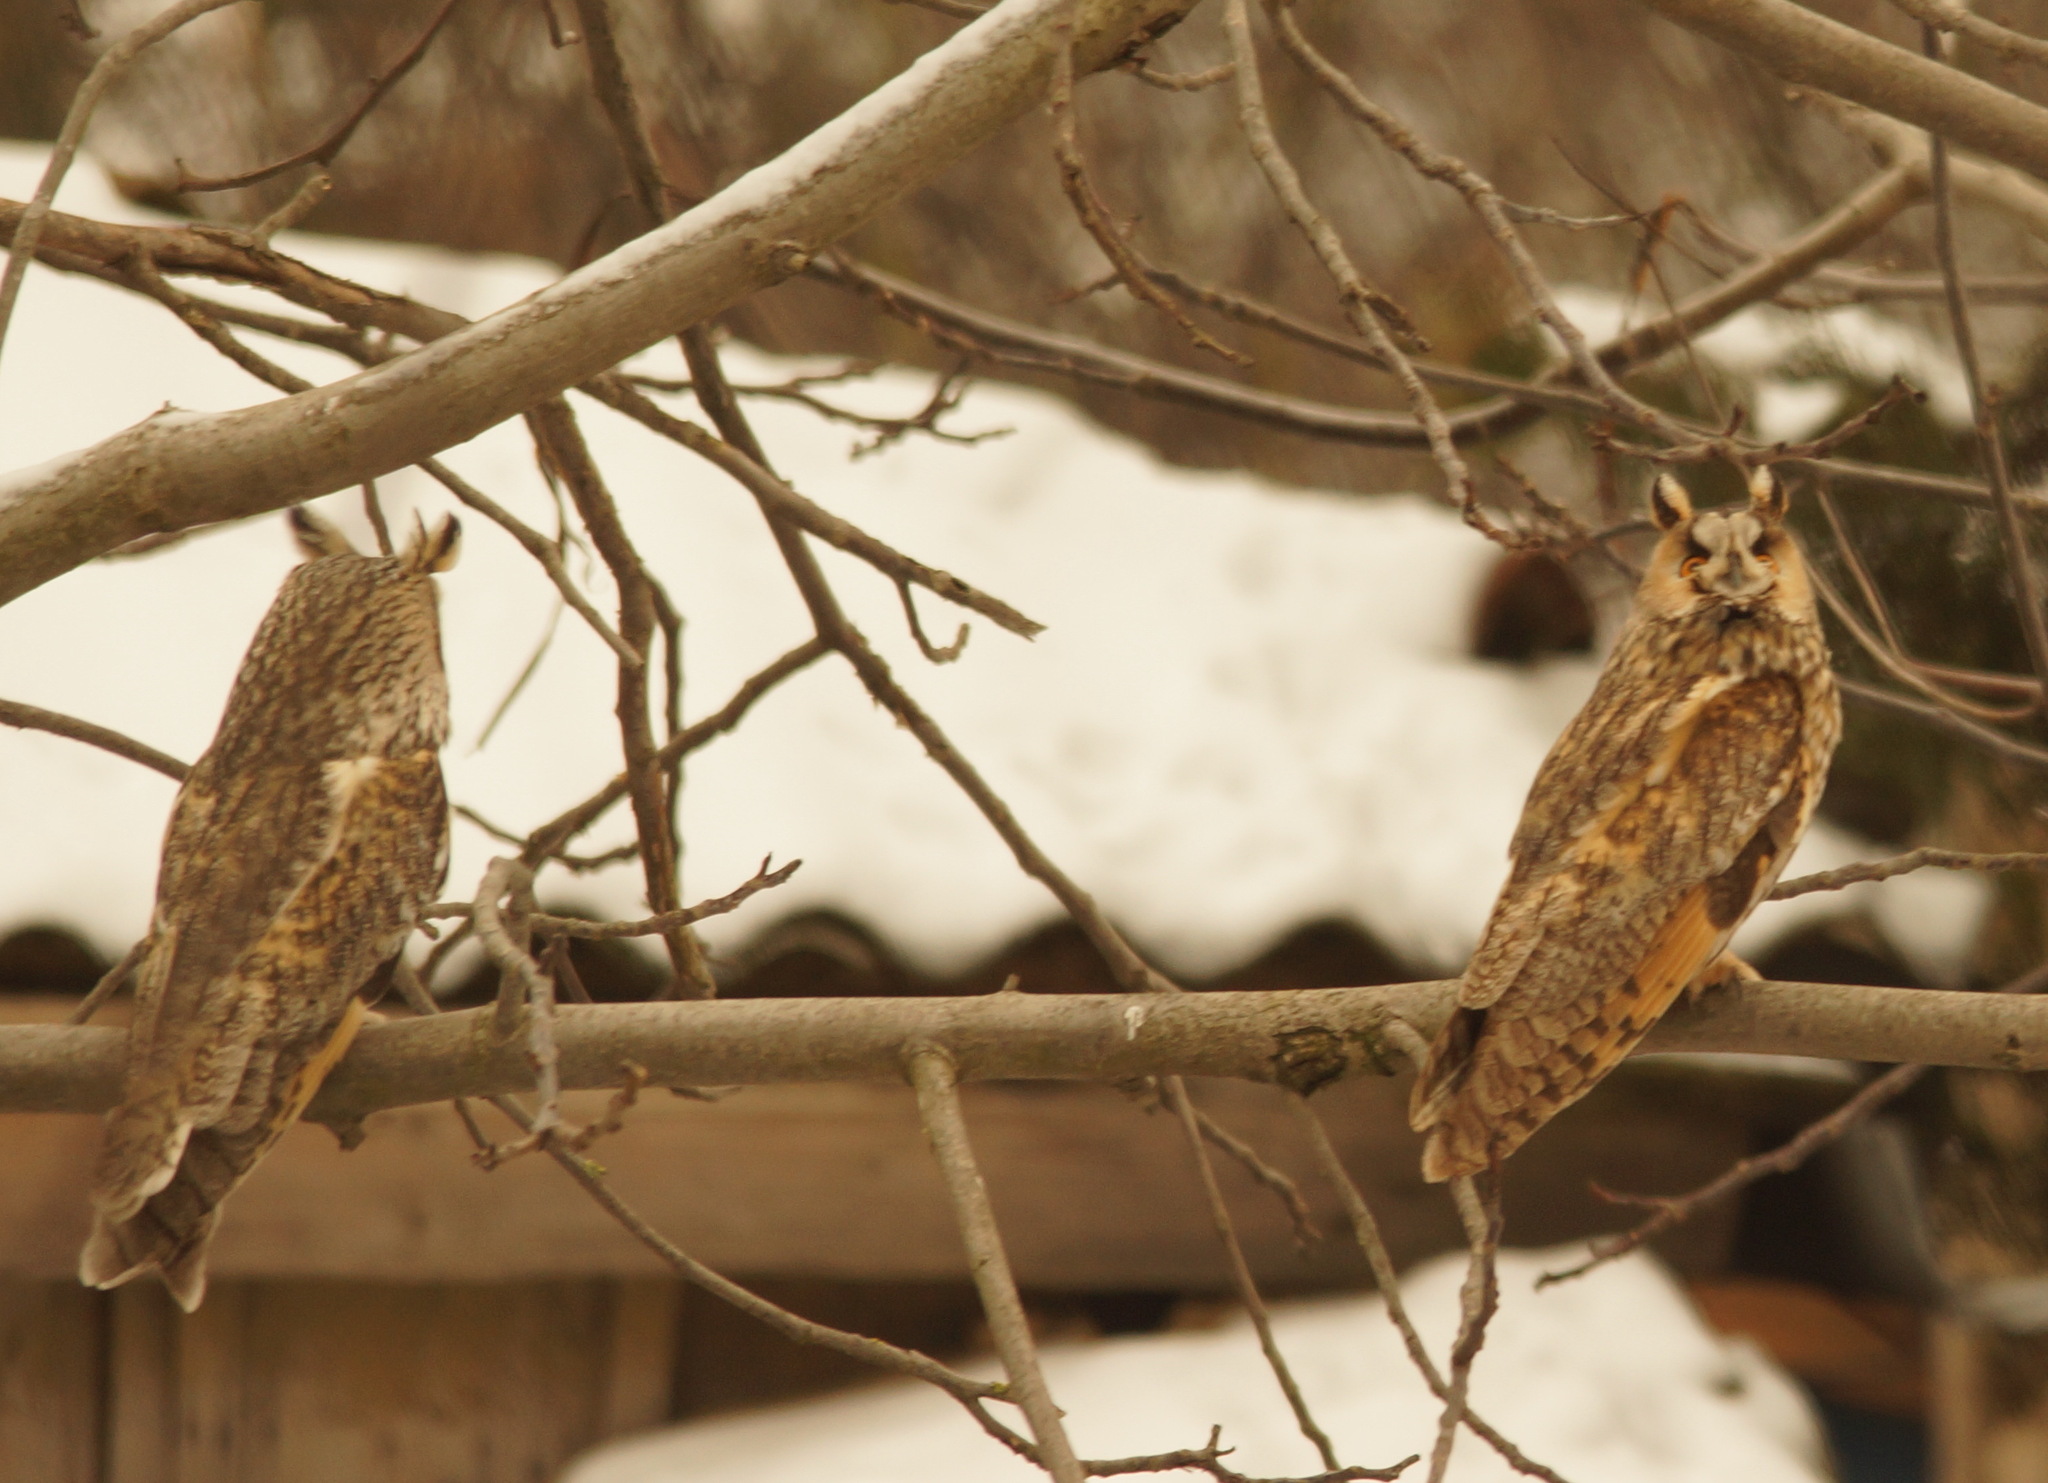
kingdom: Animalia
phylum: Chordata
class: Aves
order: Strigiformes
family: Strigidae
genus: Asio
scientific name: Asio otus
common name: Long-eared owl
